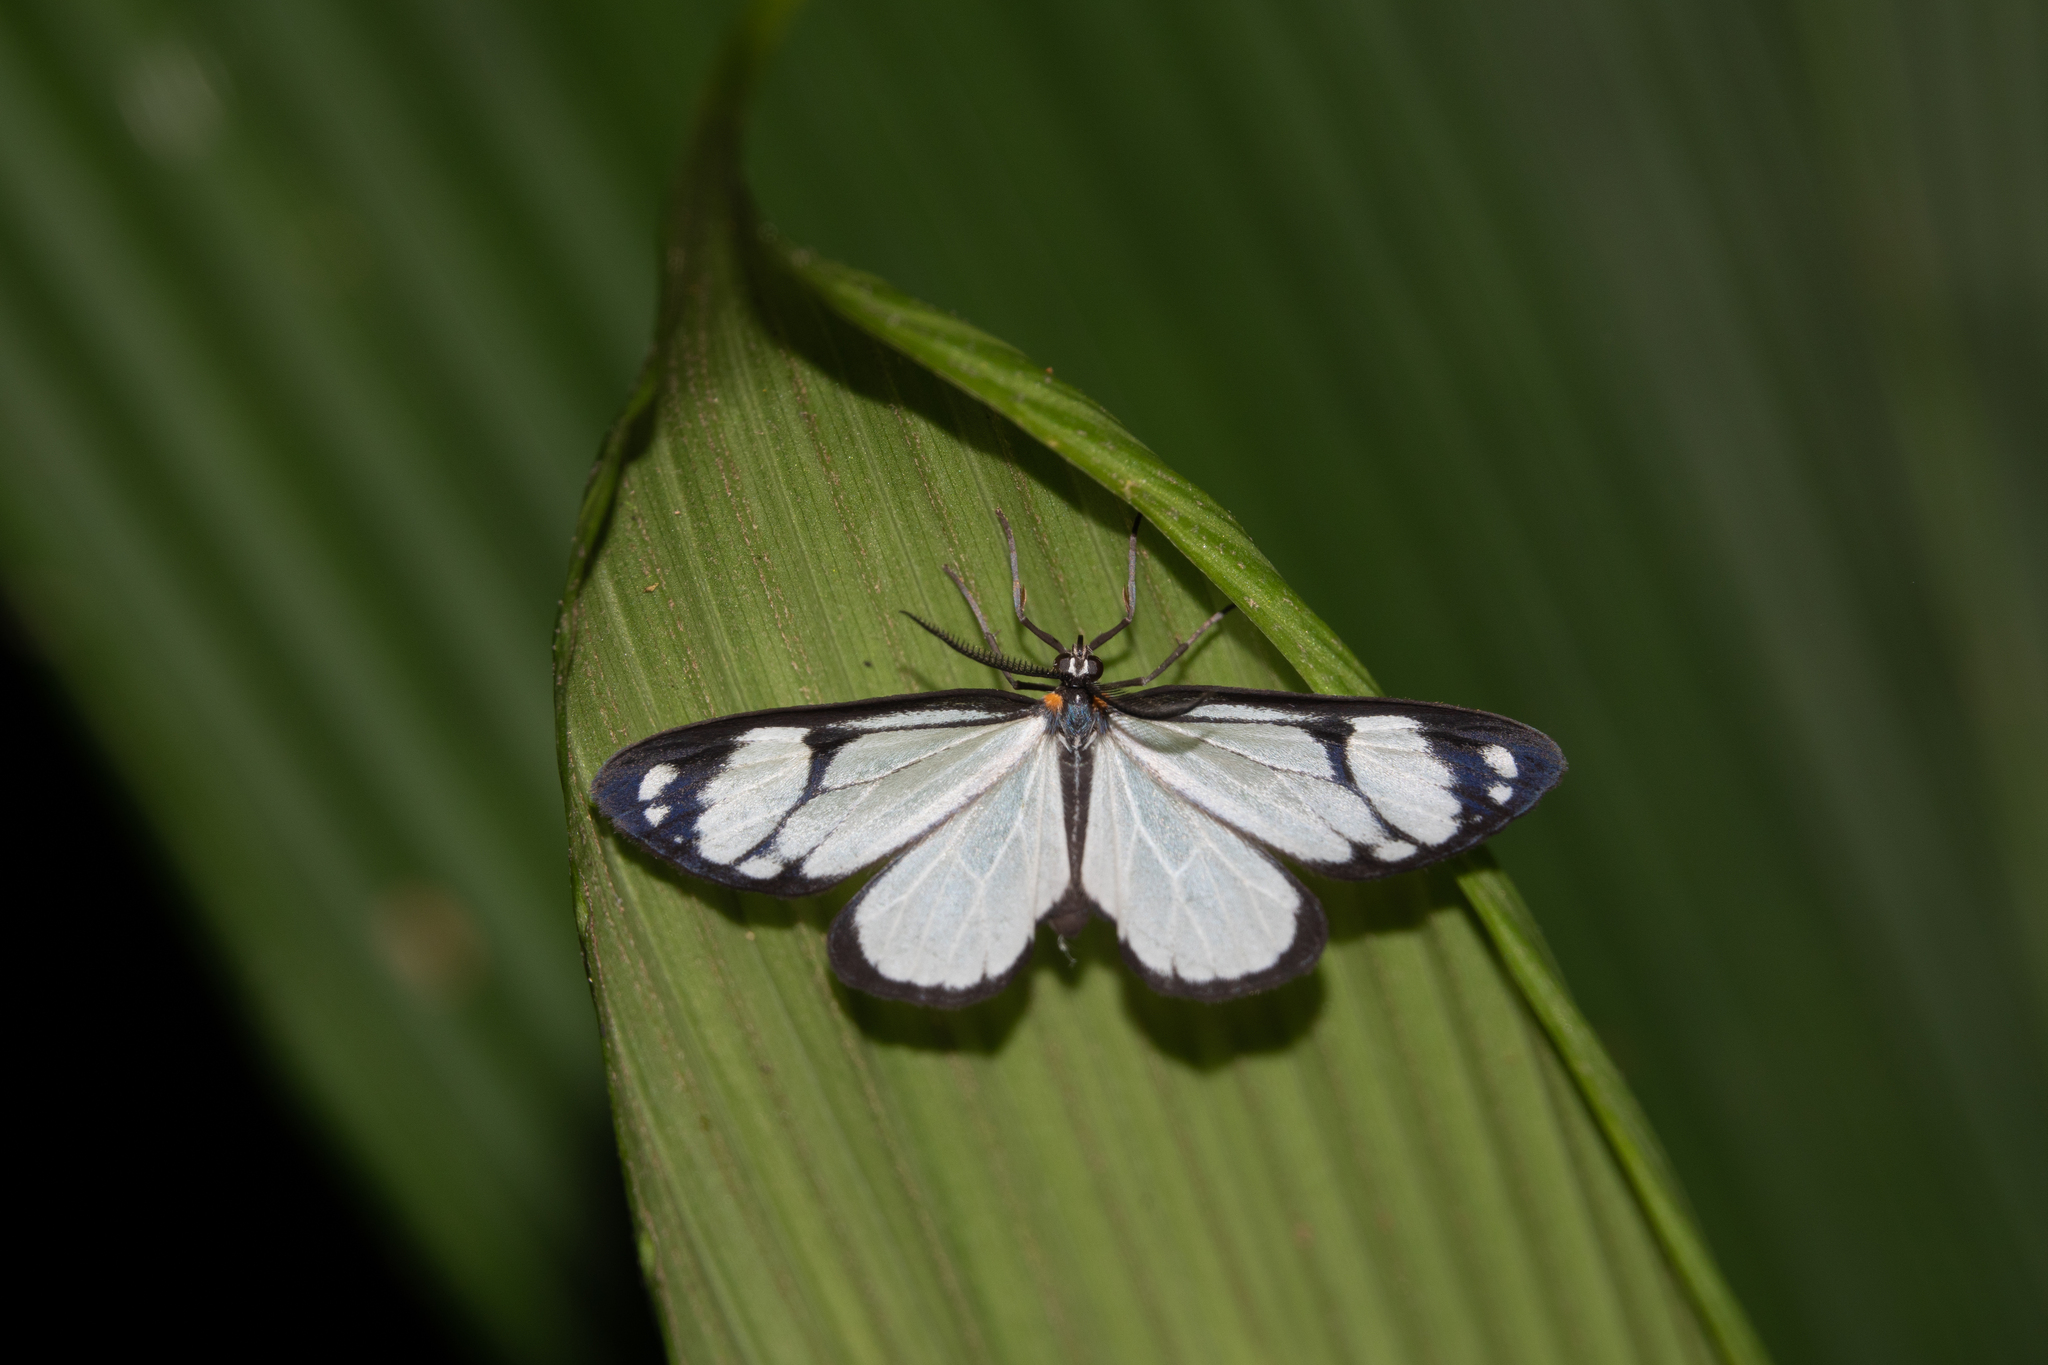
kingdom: Animalia
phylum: Arthropoda
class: Insecta
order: Lepidoptera
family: Notodontidae
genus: Isostyla
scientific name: Isostyla
